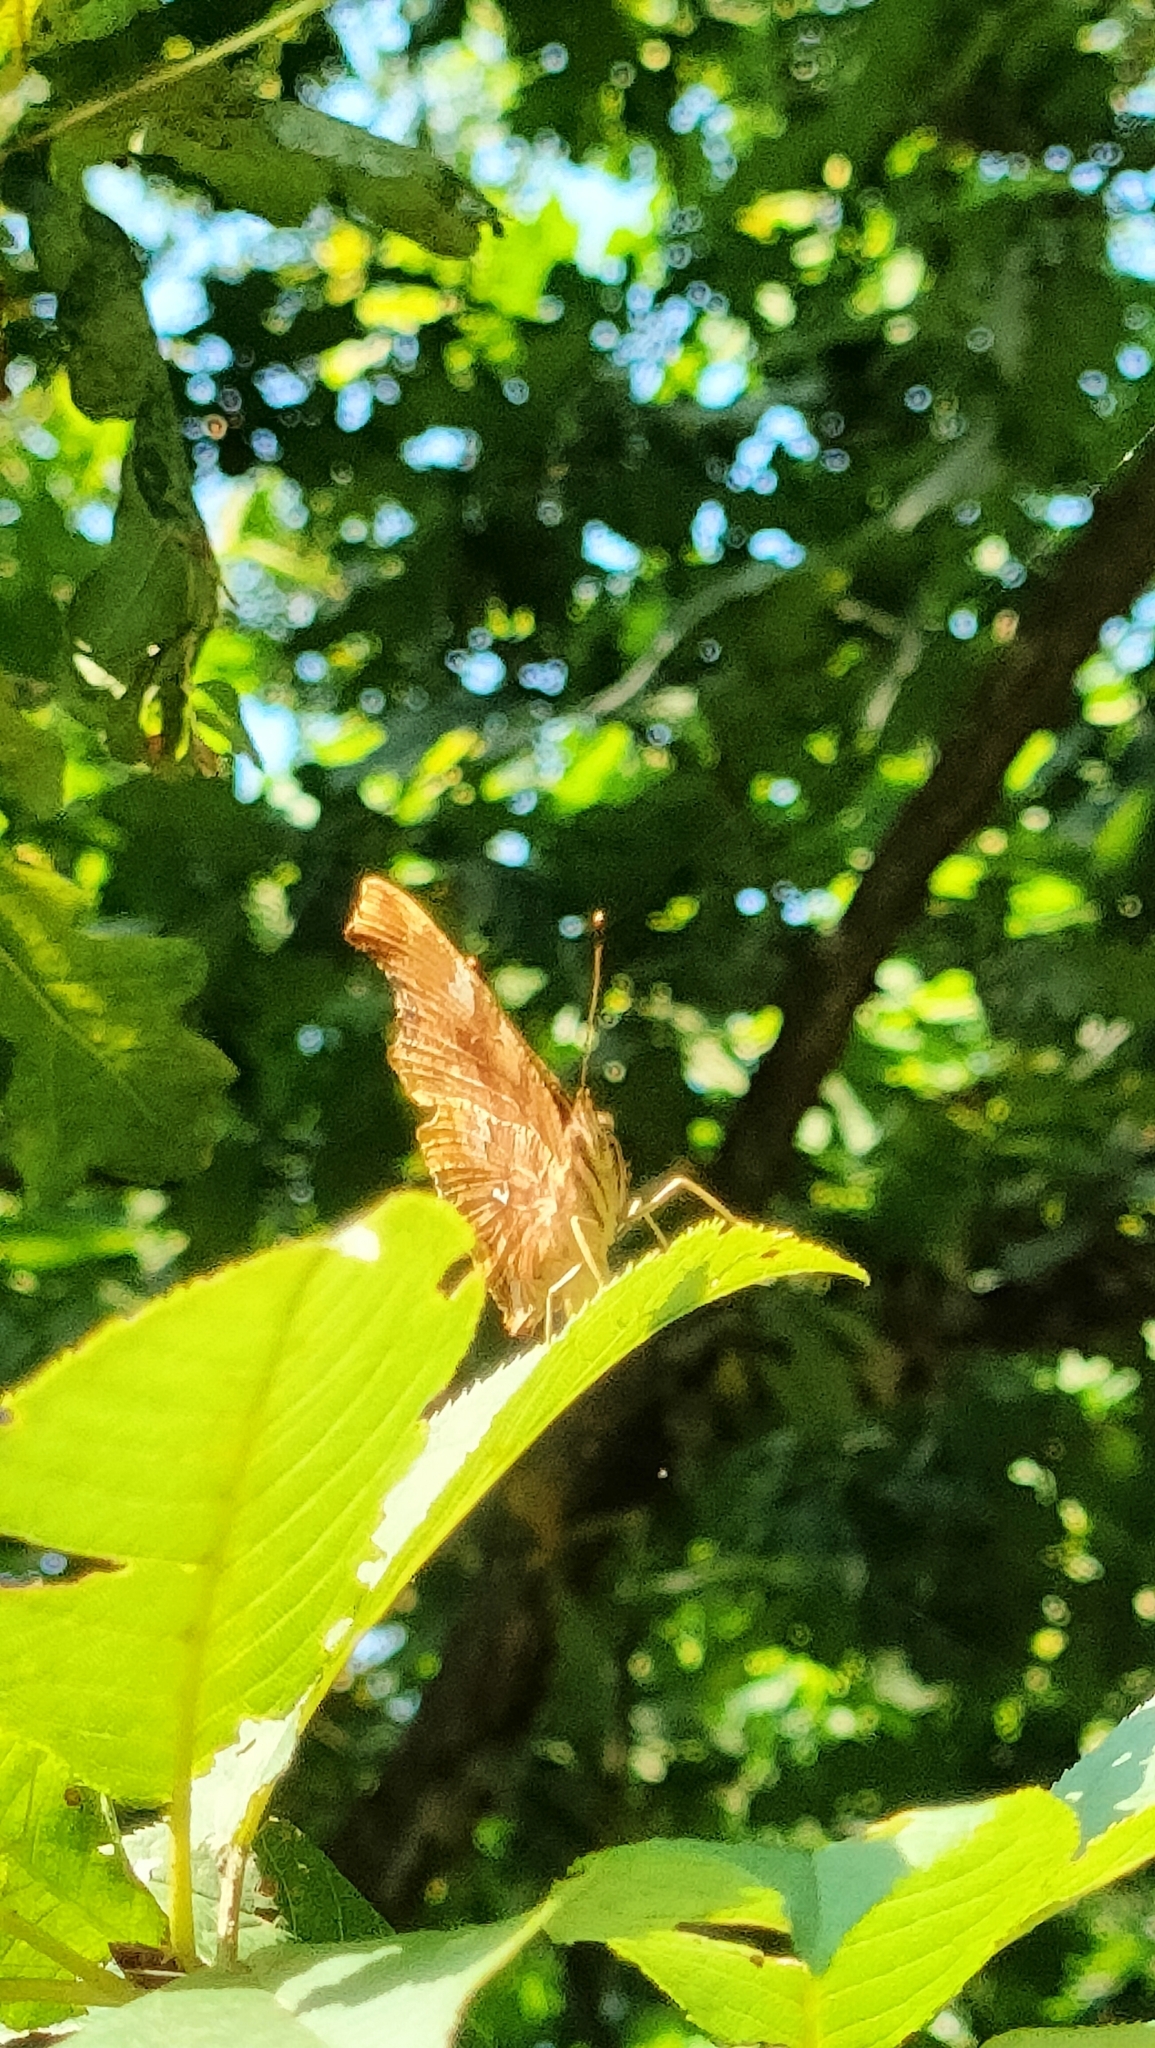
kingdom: Animalia
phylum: Arthropoda
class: Insecta
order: Lepidoptera
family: Nymphalidae
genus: Polygonia
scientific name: Polygonia c-album
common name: Comma
